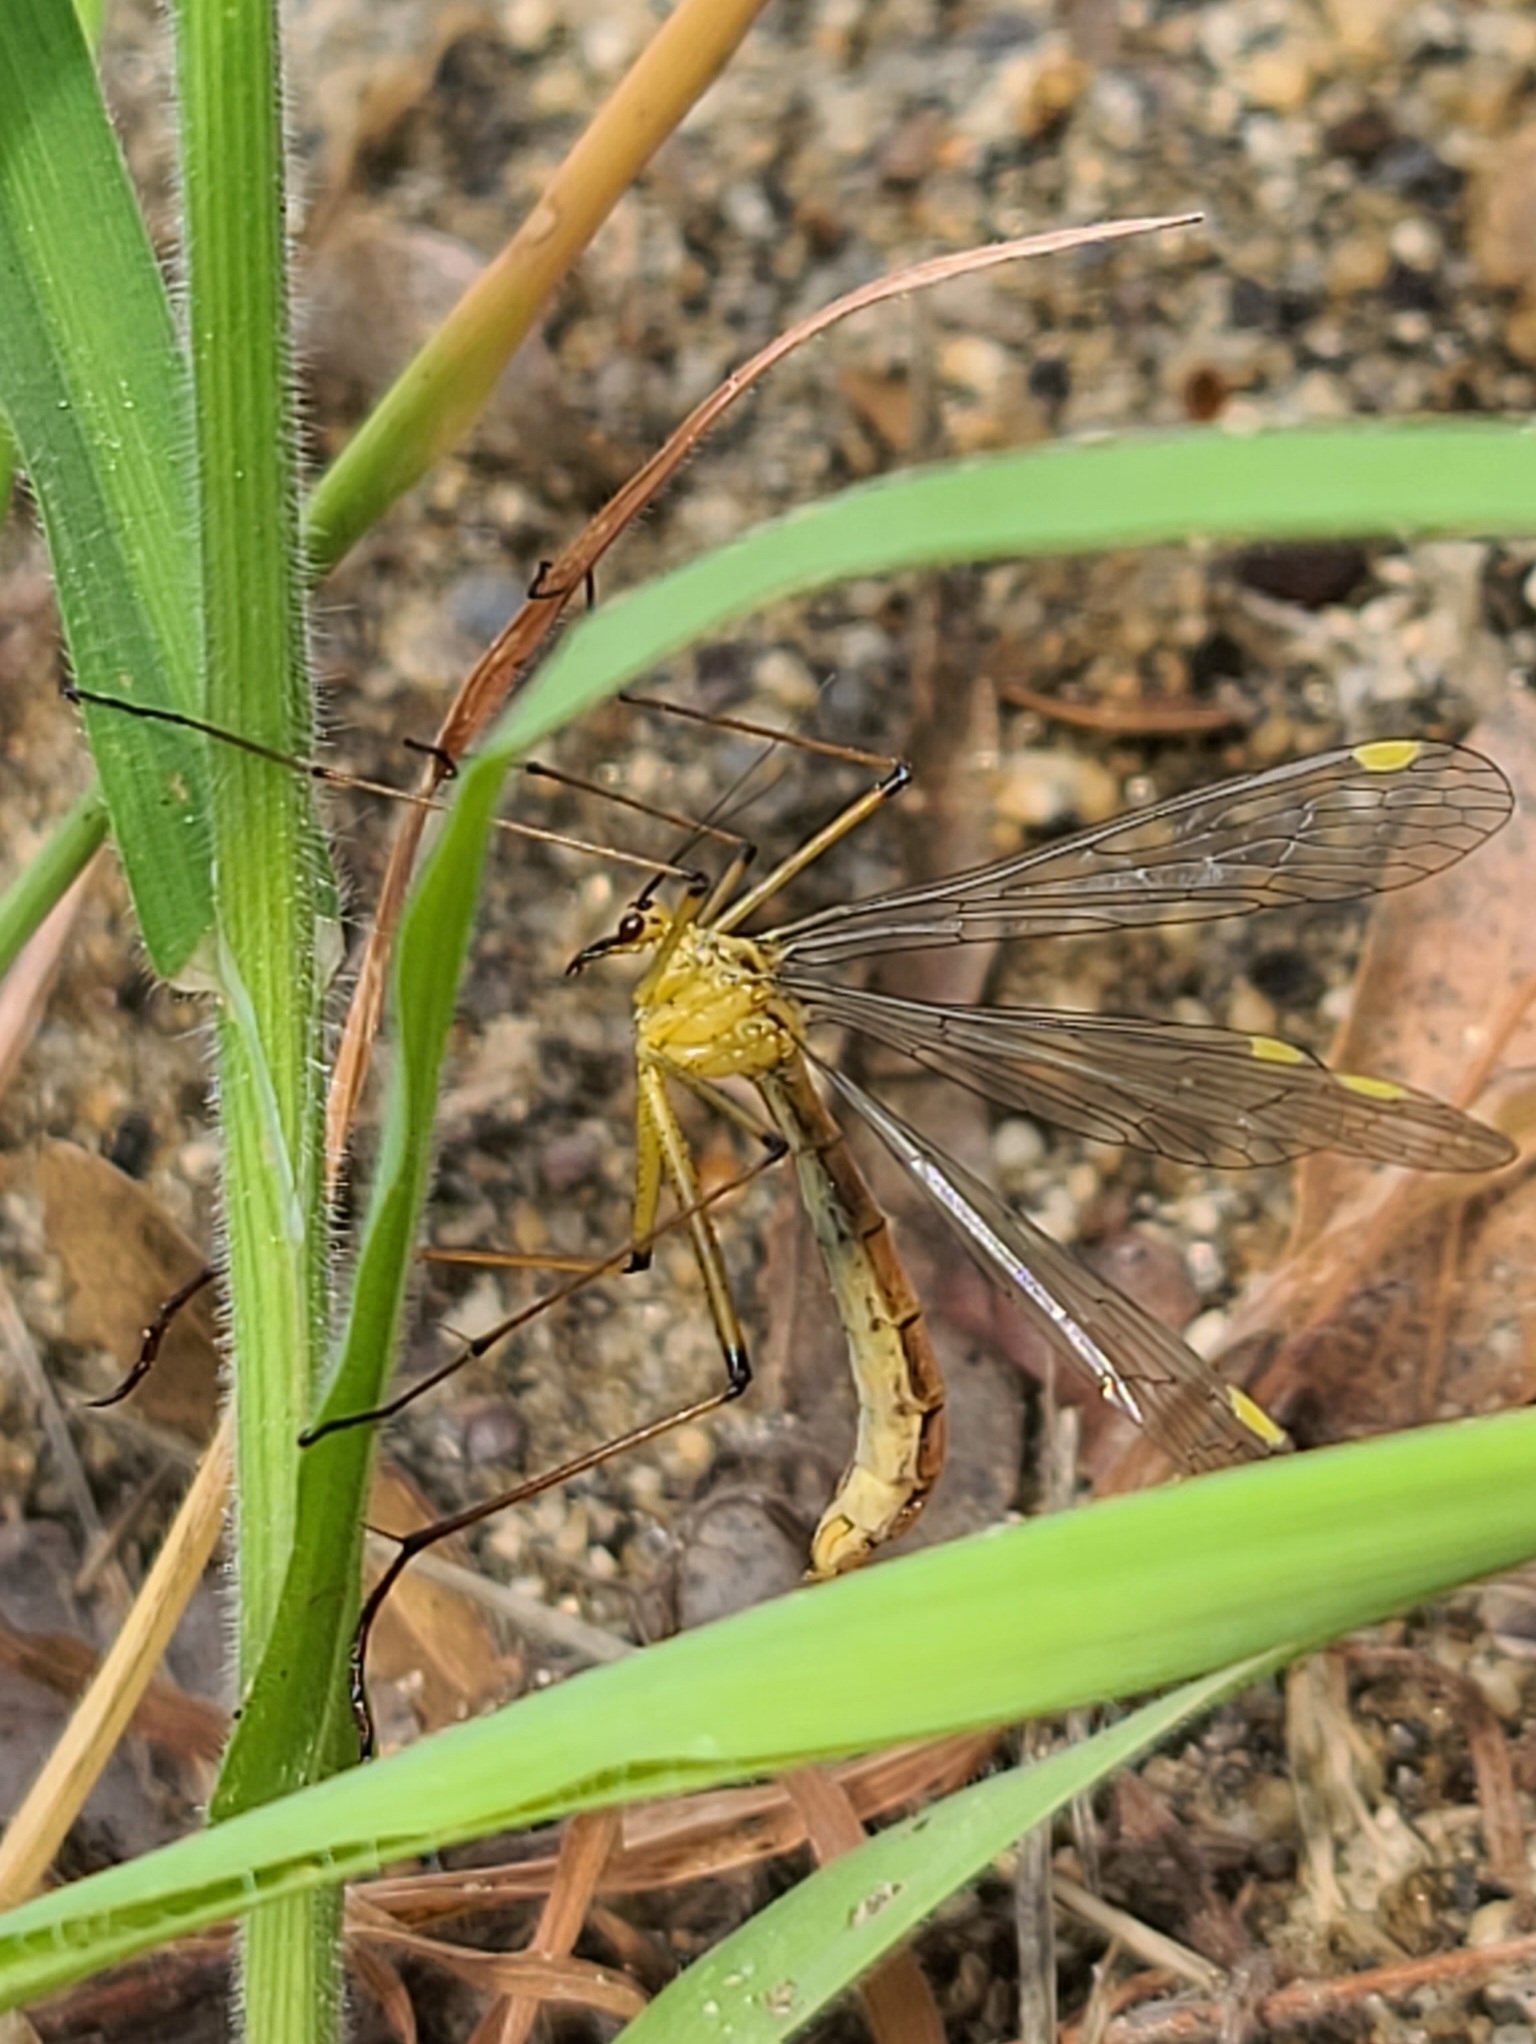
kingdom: Animalia
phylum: Arthropoda
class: Insecta
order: Mecoptera
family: Bittacidae
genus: Bittacus
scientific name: Bittacus chlorostigma
